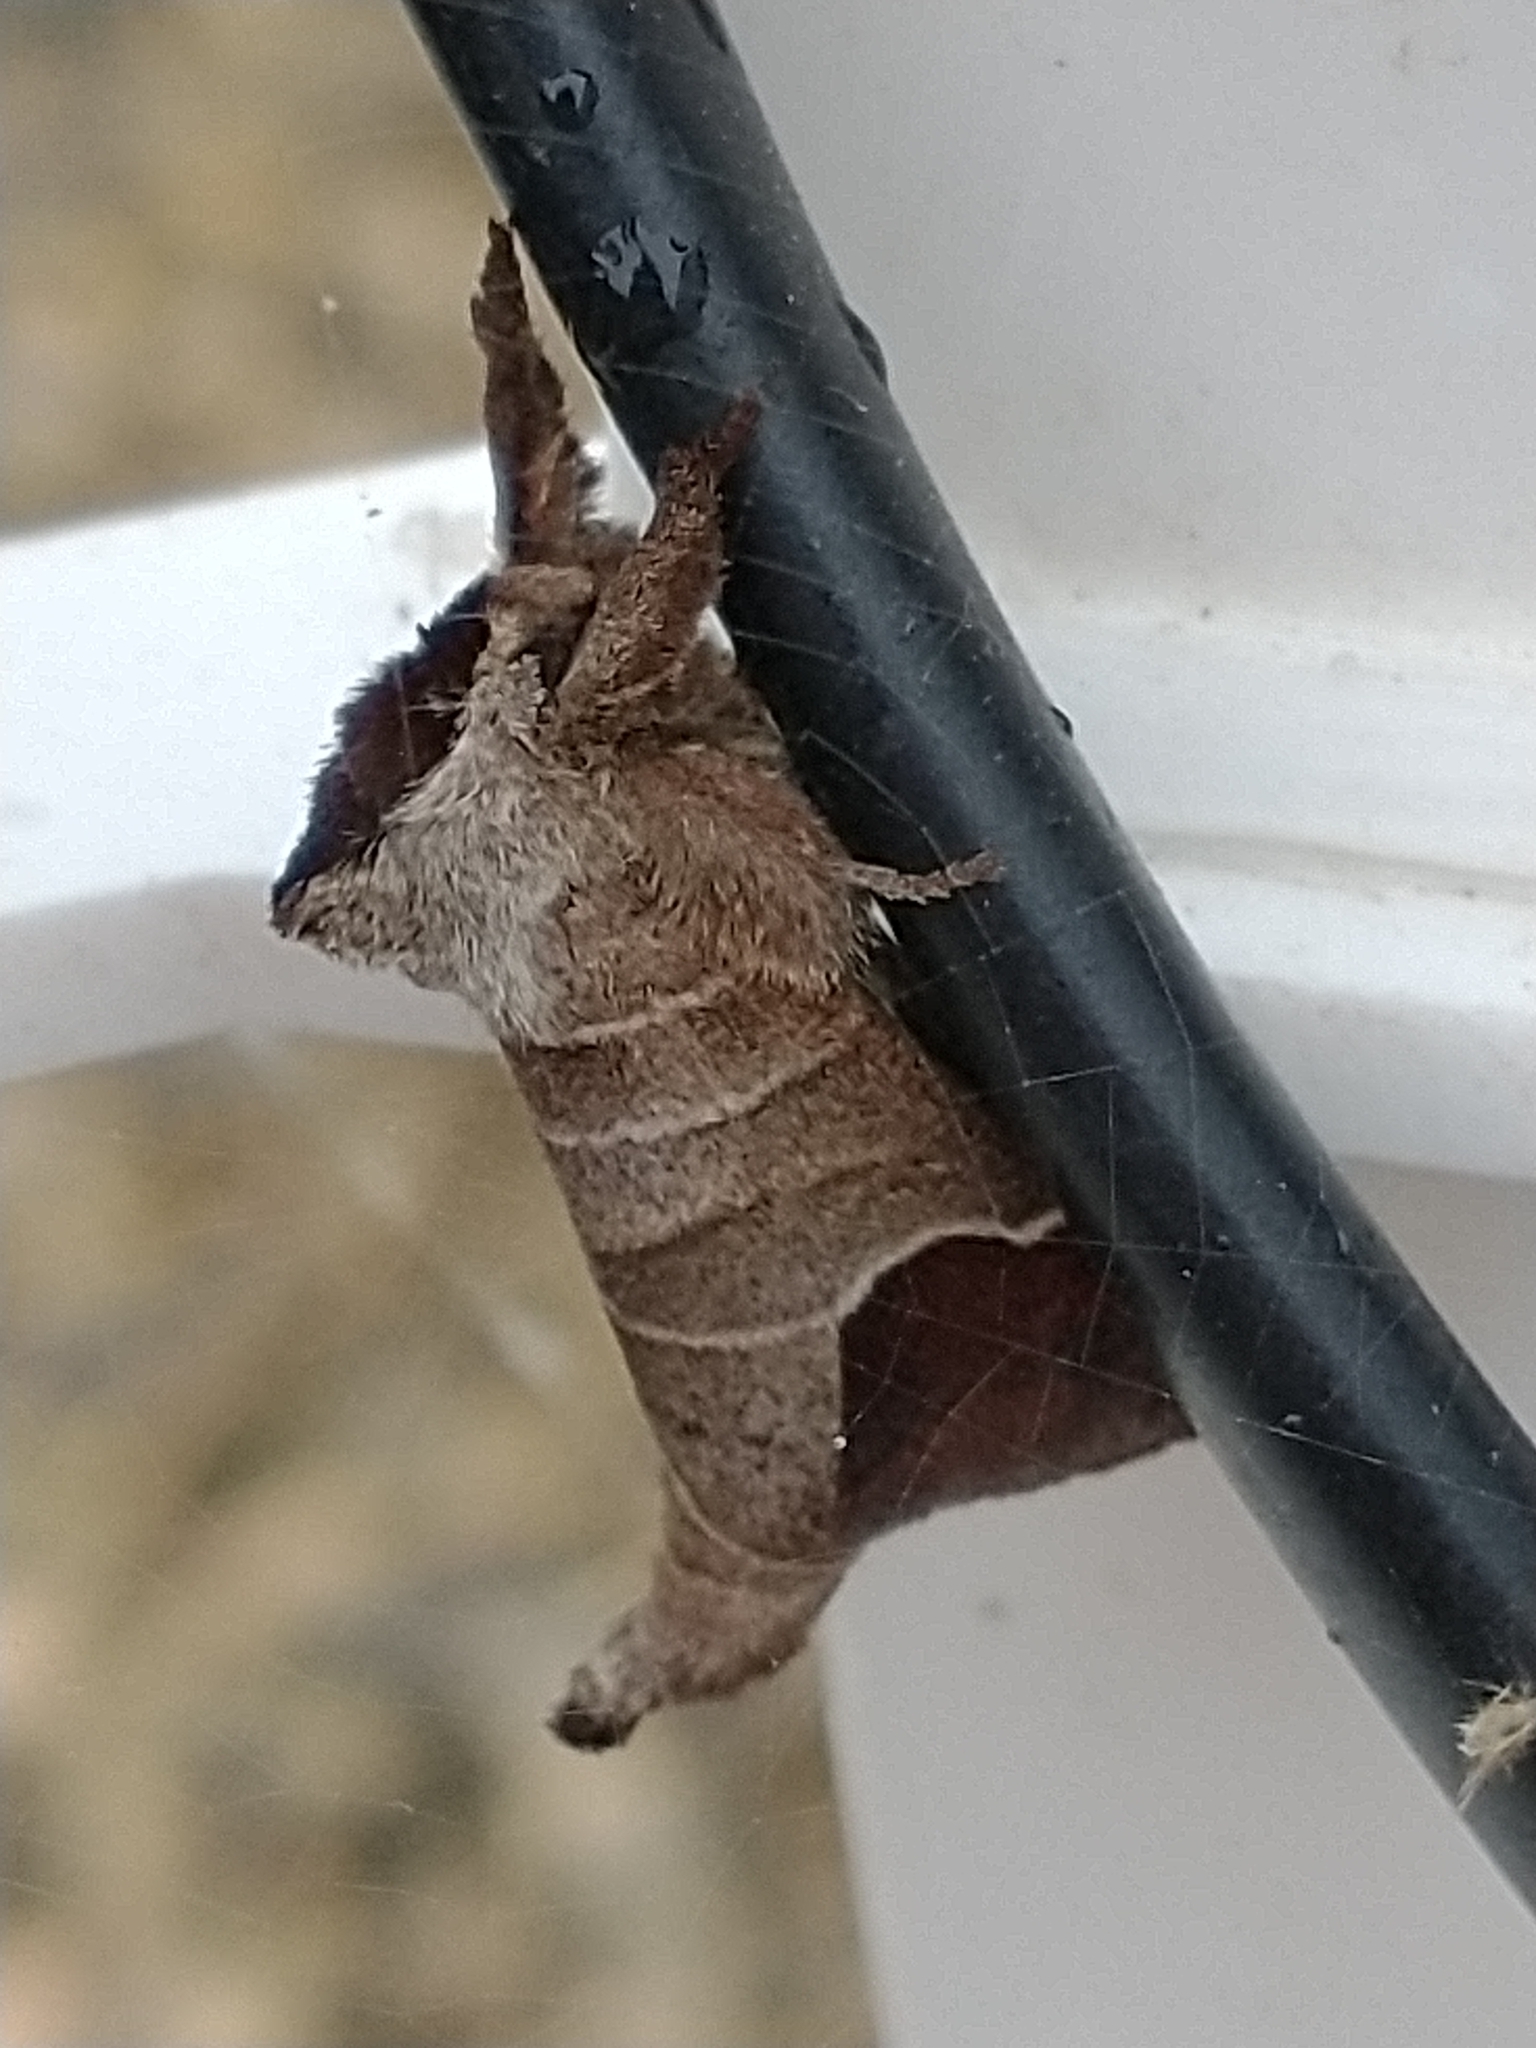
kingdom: Animalia
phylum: Arthropoda
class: Insecta
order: Lepidoptera
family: Notodontidae
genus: Clostera
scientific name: Clostera curtula
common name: Chocolate-tip
